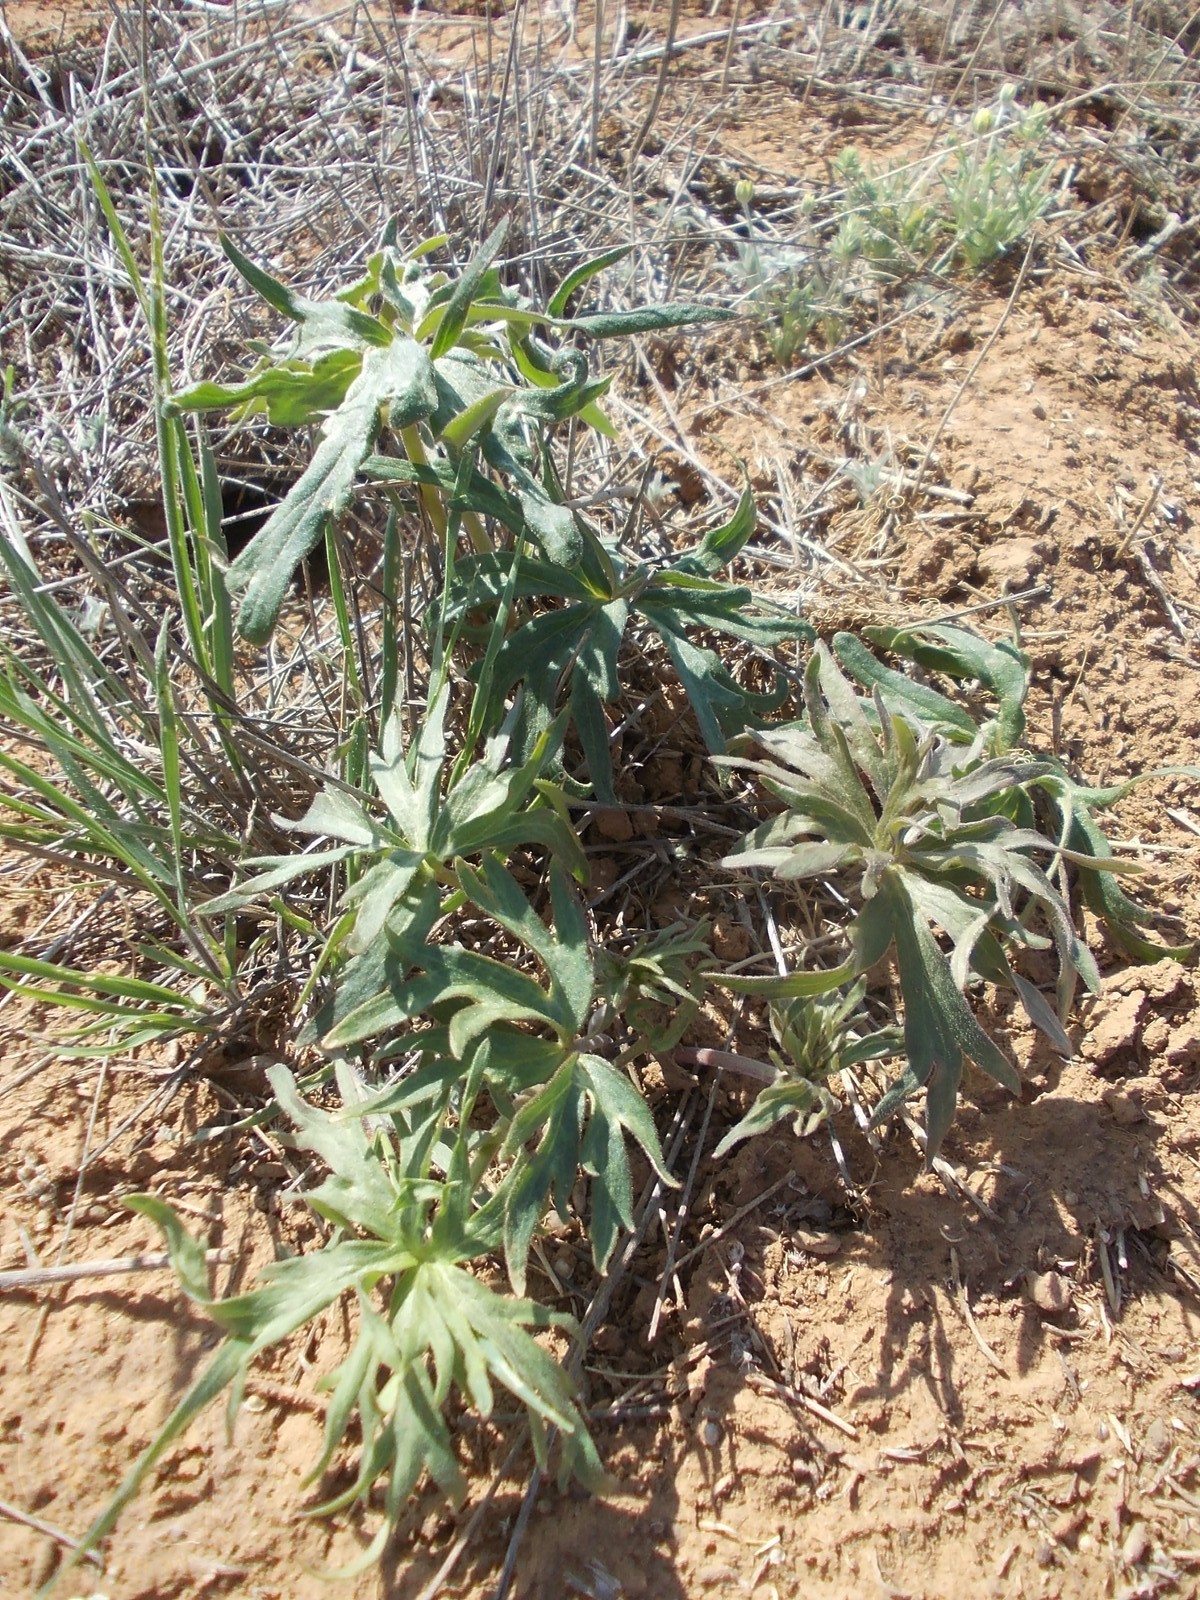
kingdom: Plantae
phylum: Tracheophyta
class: Magnoliopsida
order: Ranunculales
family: Ranunculaceae
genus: Delphinium
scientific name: Delphinium puniceum
